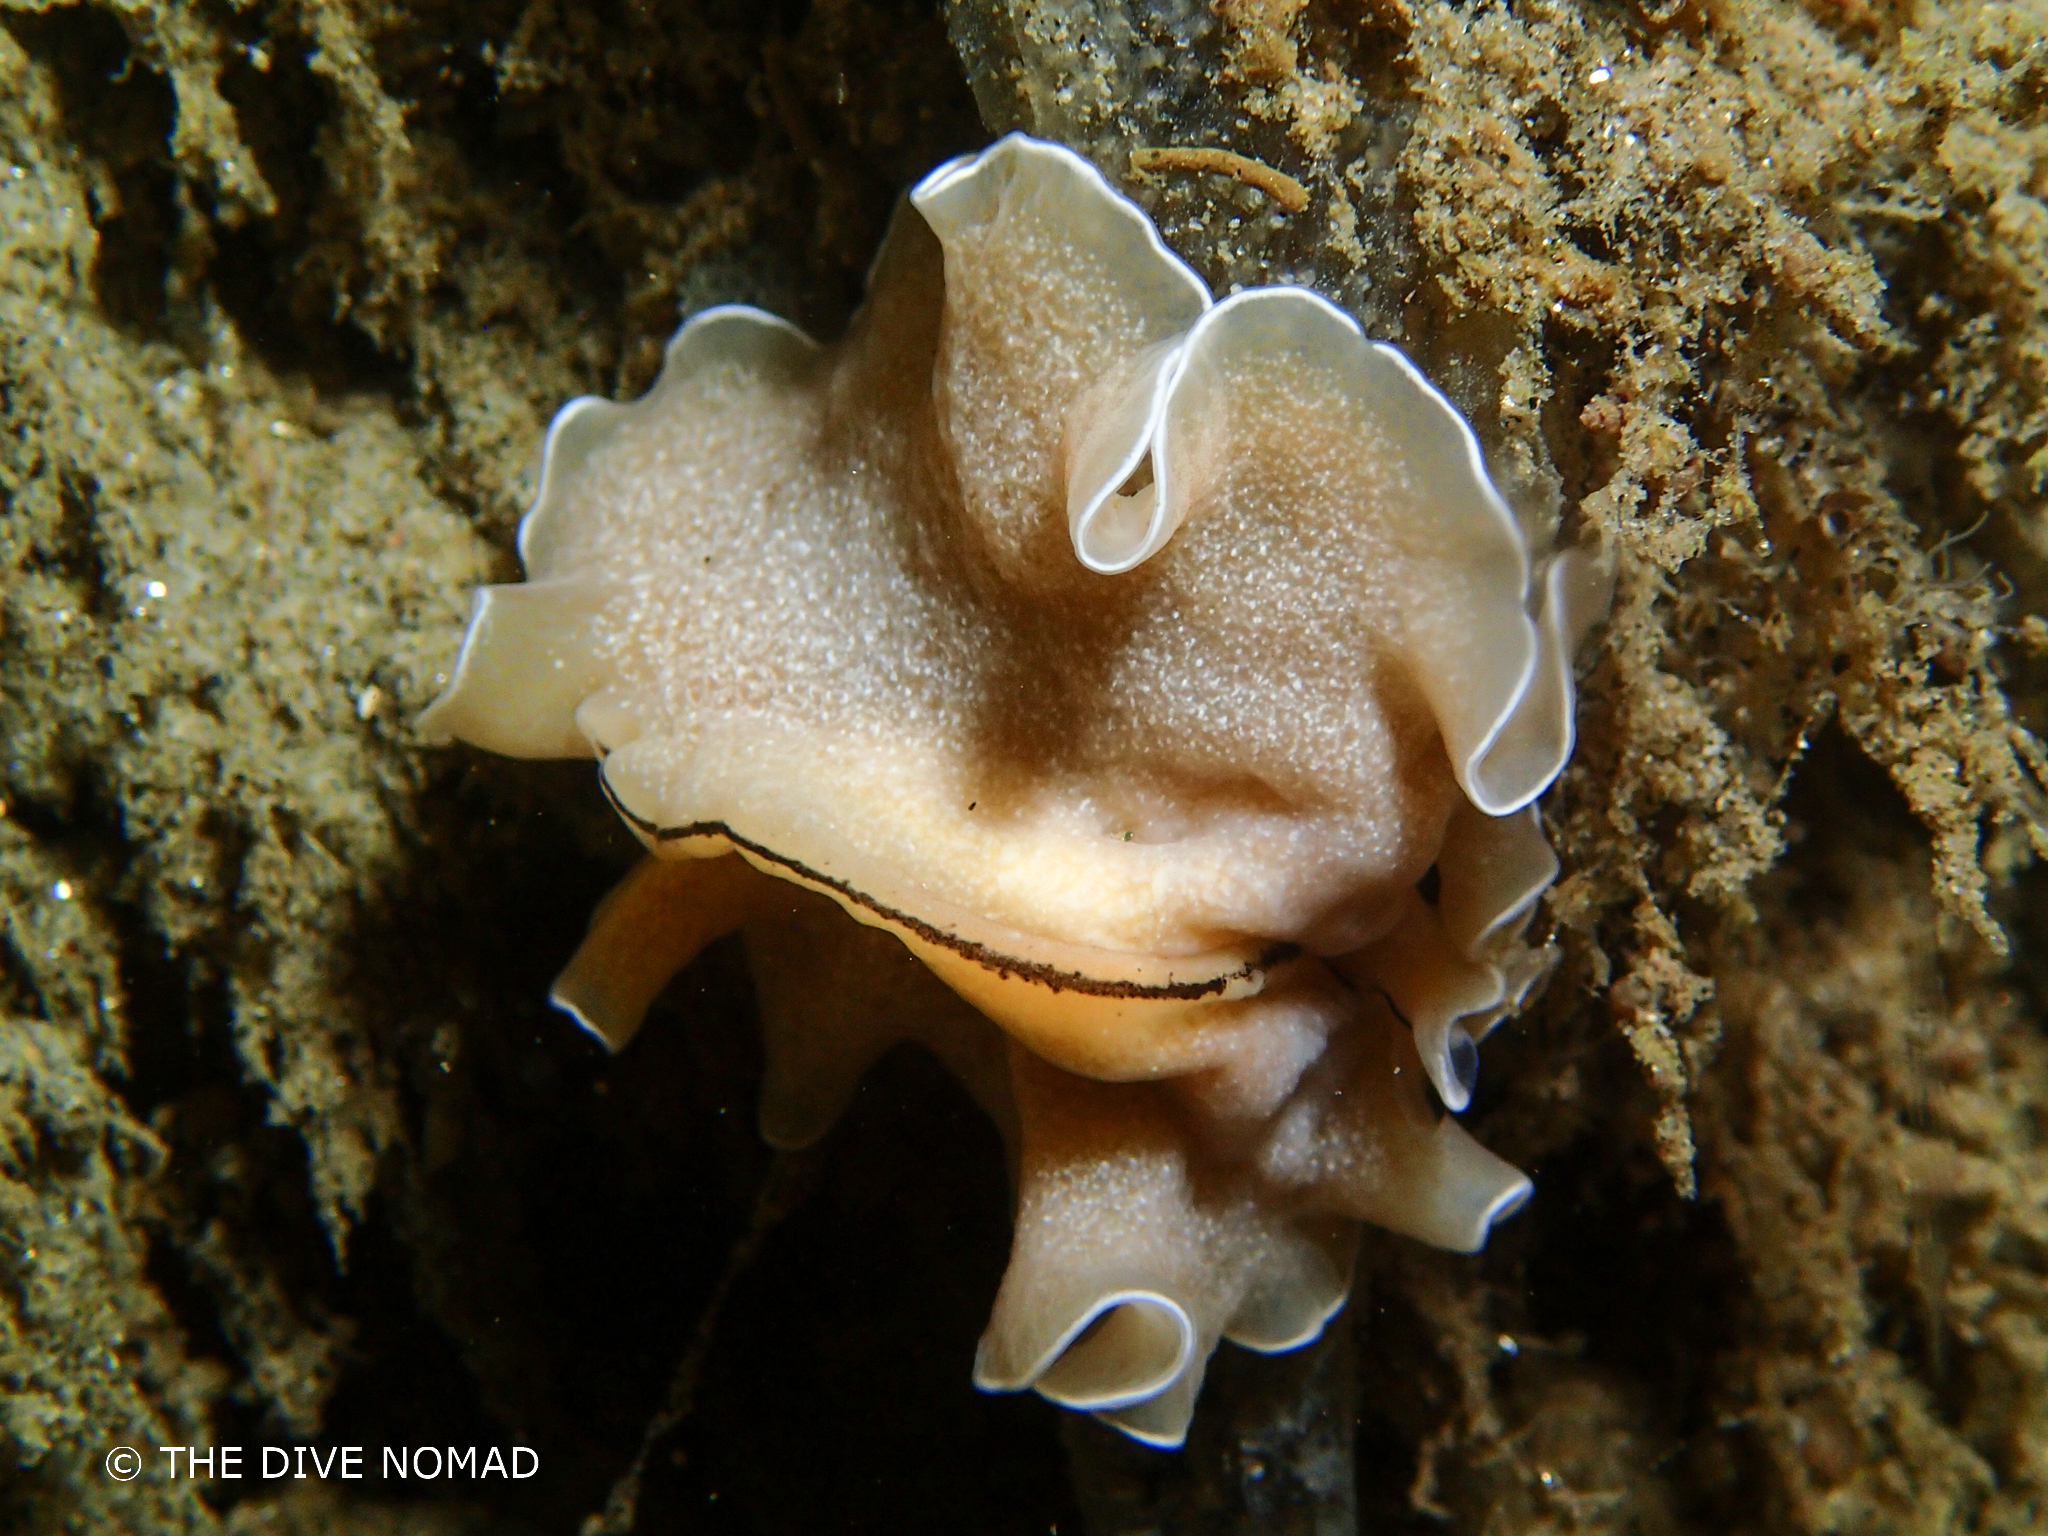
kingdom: Animalia
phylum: Platyhelminthes
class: Turbellaria
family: Pseudocerotidae
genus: Pseudoceros
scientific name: Pseudoceros luteus
